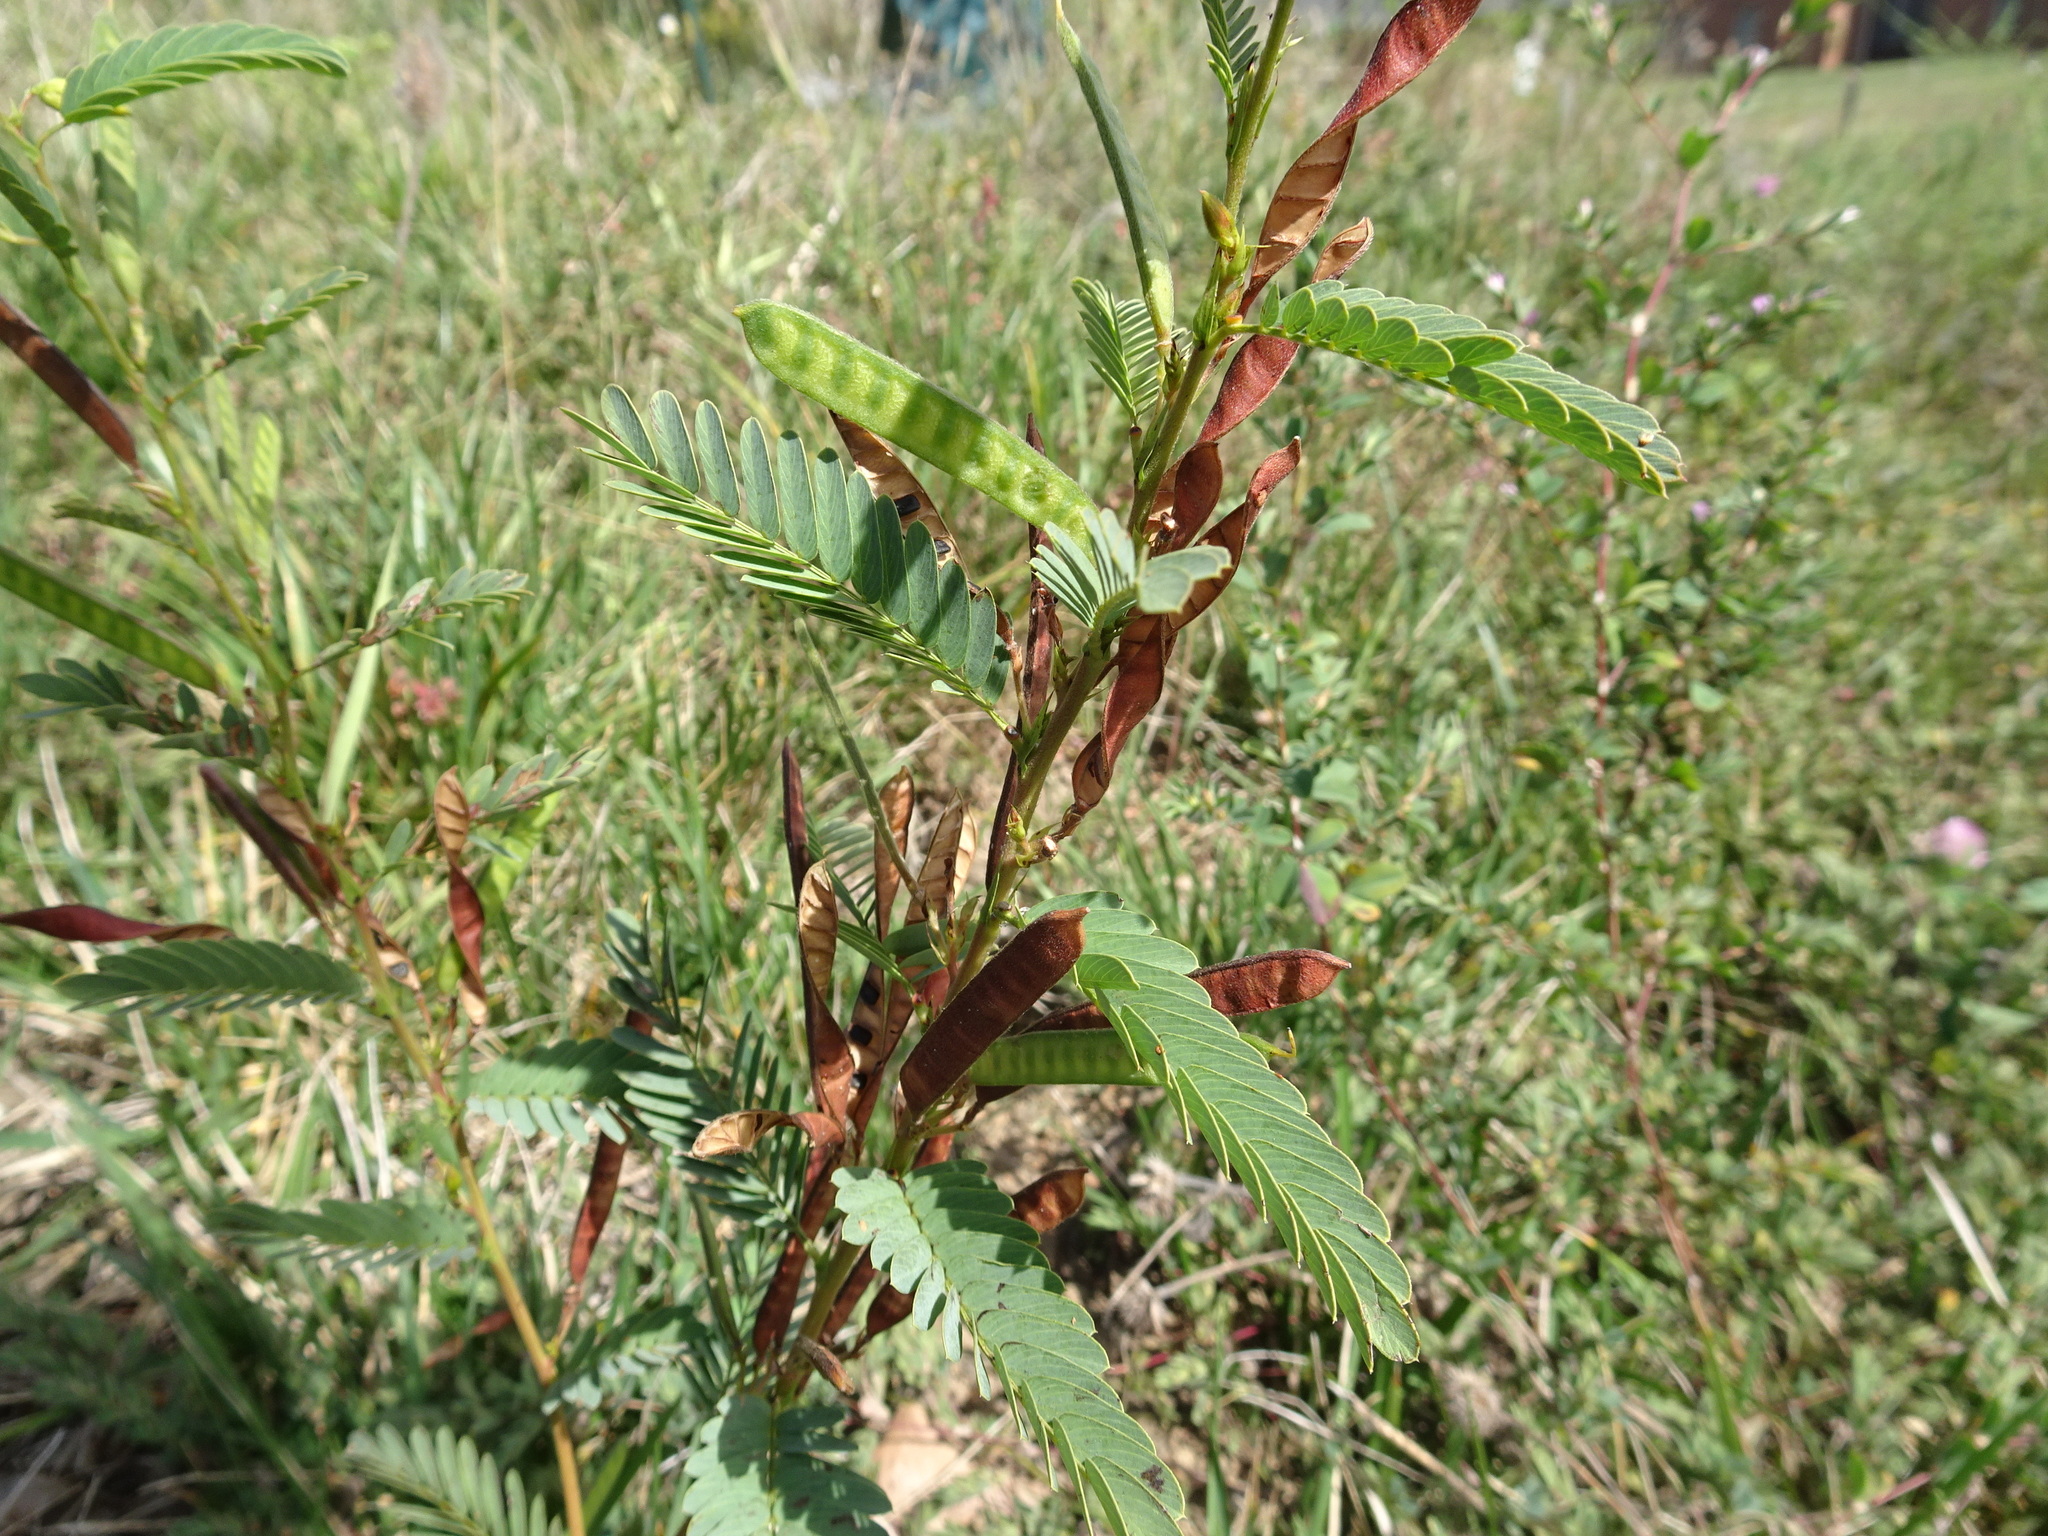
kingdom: Plantae
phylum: Tracheophyta
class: Magnoliopsida
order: Fabales
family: Fabaceae
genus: Chamaecrista
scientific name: Chamaecrista fasciculata
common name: Golden cassia
